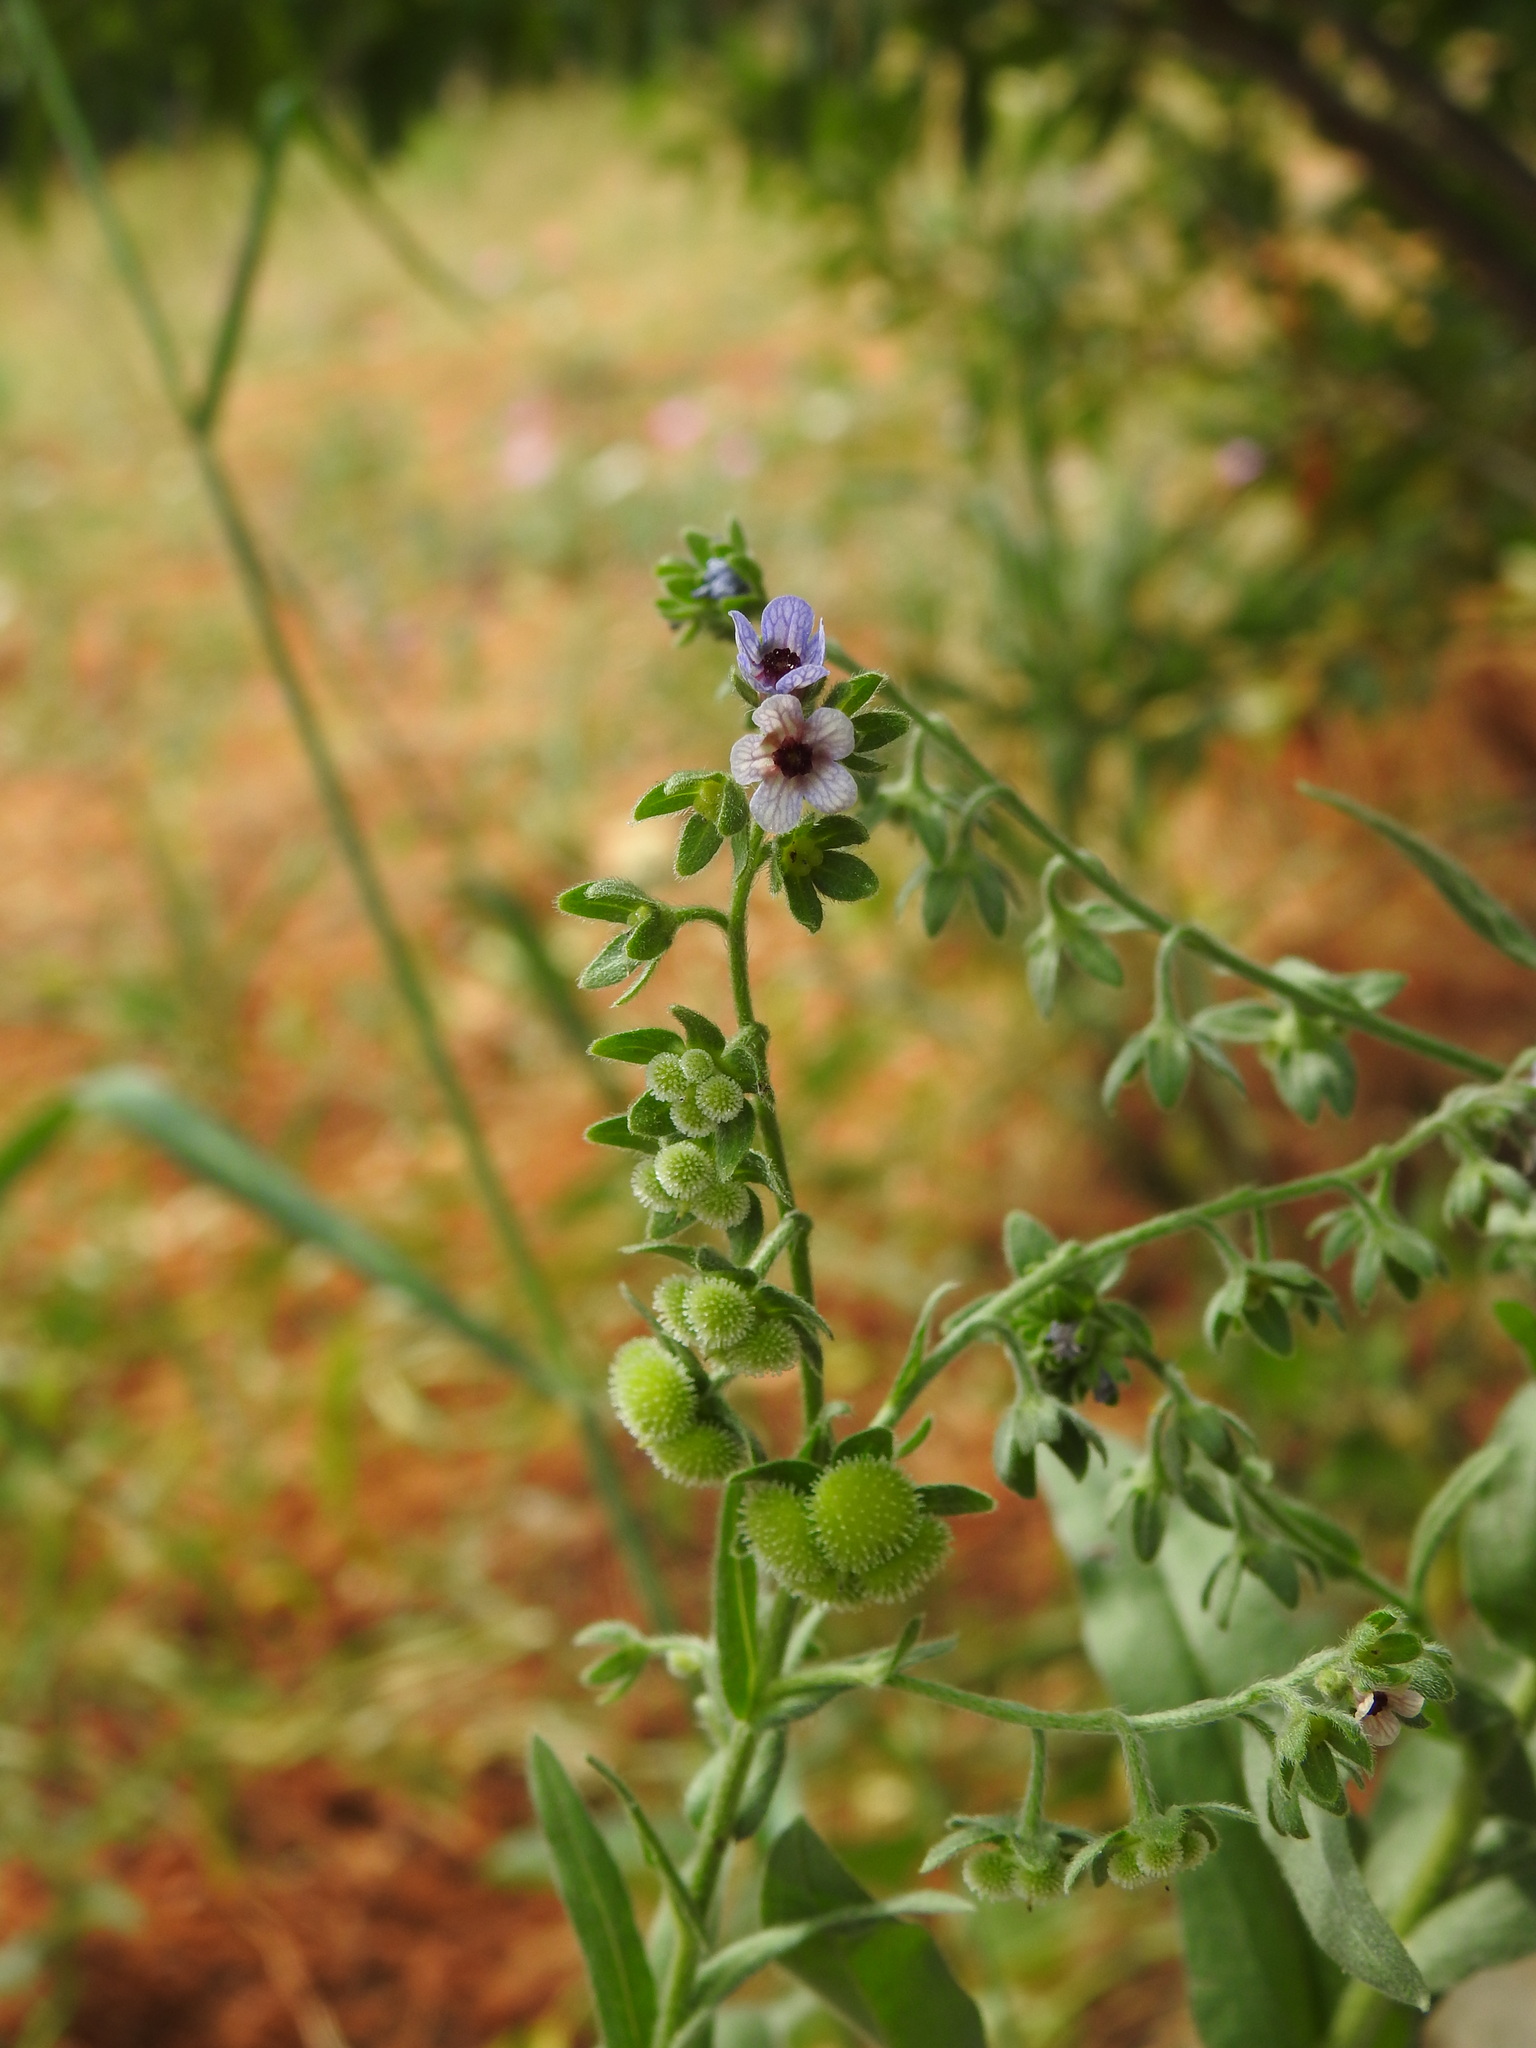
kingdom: Plantae
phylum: Tracheophyta
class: Magnoliopsida
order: Boraginales
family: Boraginaceae
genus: Cynoglossum
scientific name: Cynoglossum creticum
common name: Blue hound's tongue
